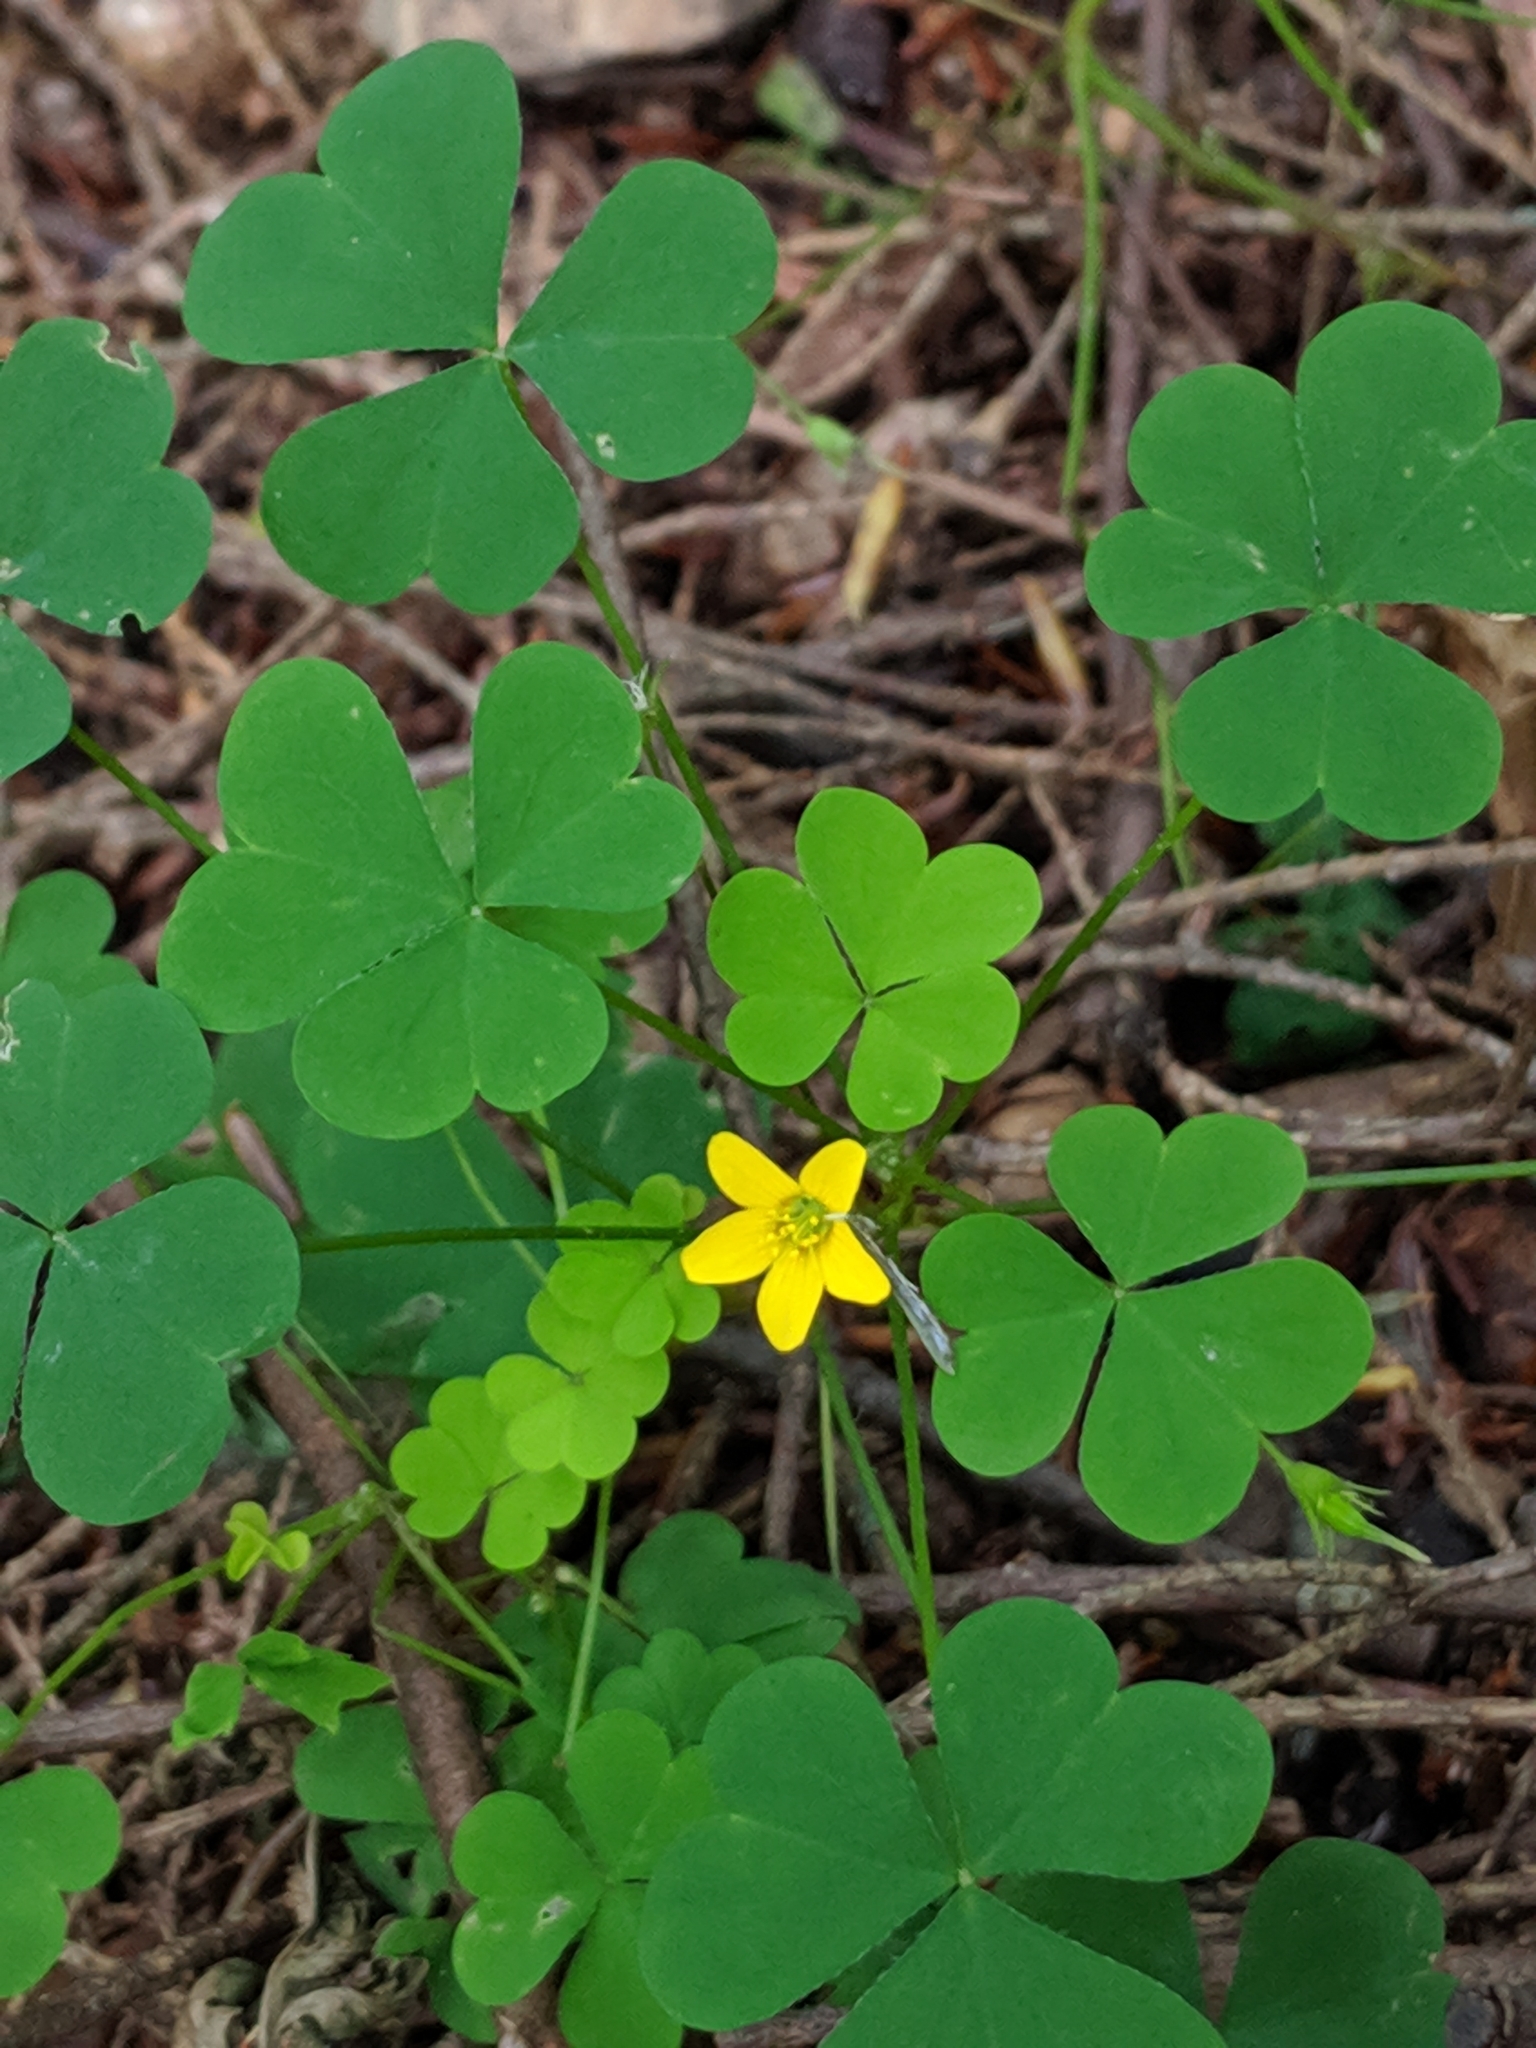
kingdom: Plantae
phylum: Tracheophyta
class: Magnoliopsida
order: Oxalidales
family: Oxalidaceae
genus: Oxalis
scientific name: Oxalis stricta
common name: Upright yellow-sorrel
